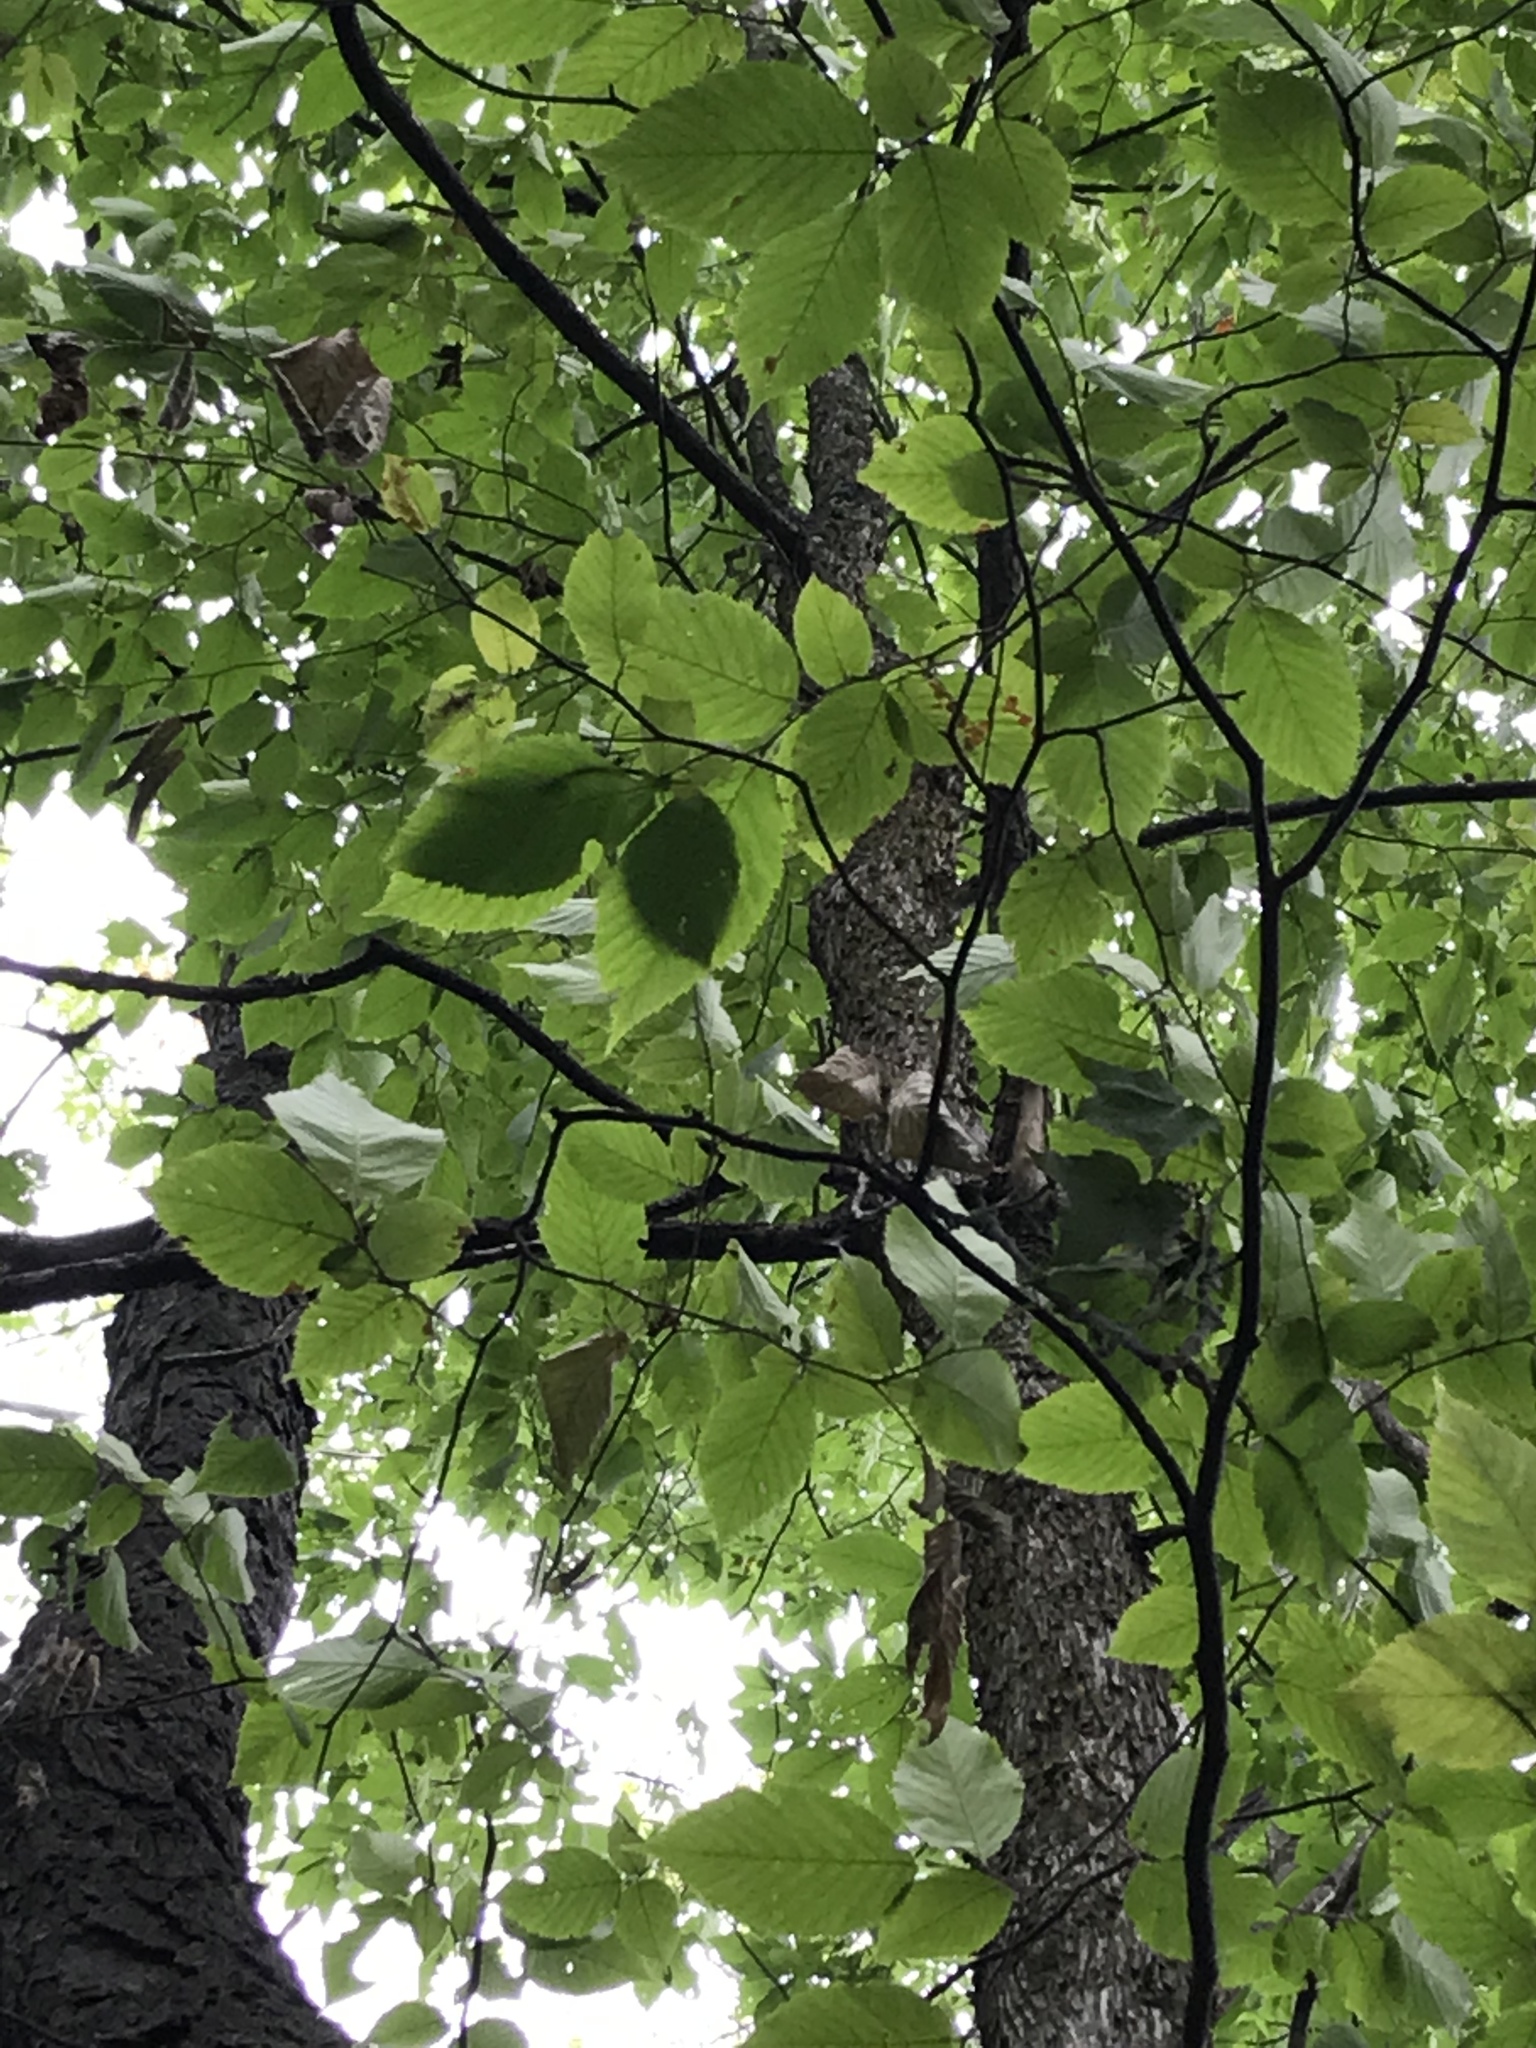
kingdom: Plantae
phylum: Tracheophyta
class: Magnoliopsida
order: Fagales
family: Betulaceae
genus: Ostrya
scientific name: Ostrya virginiana
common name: Ironwood
